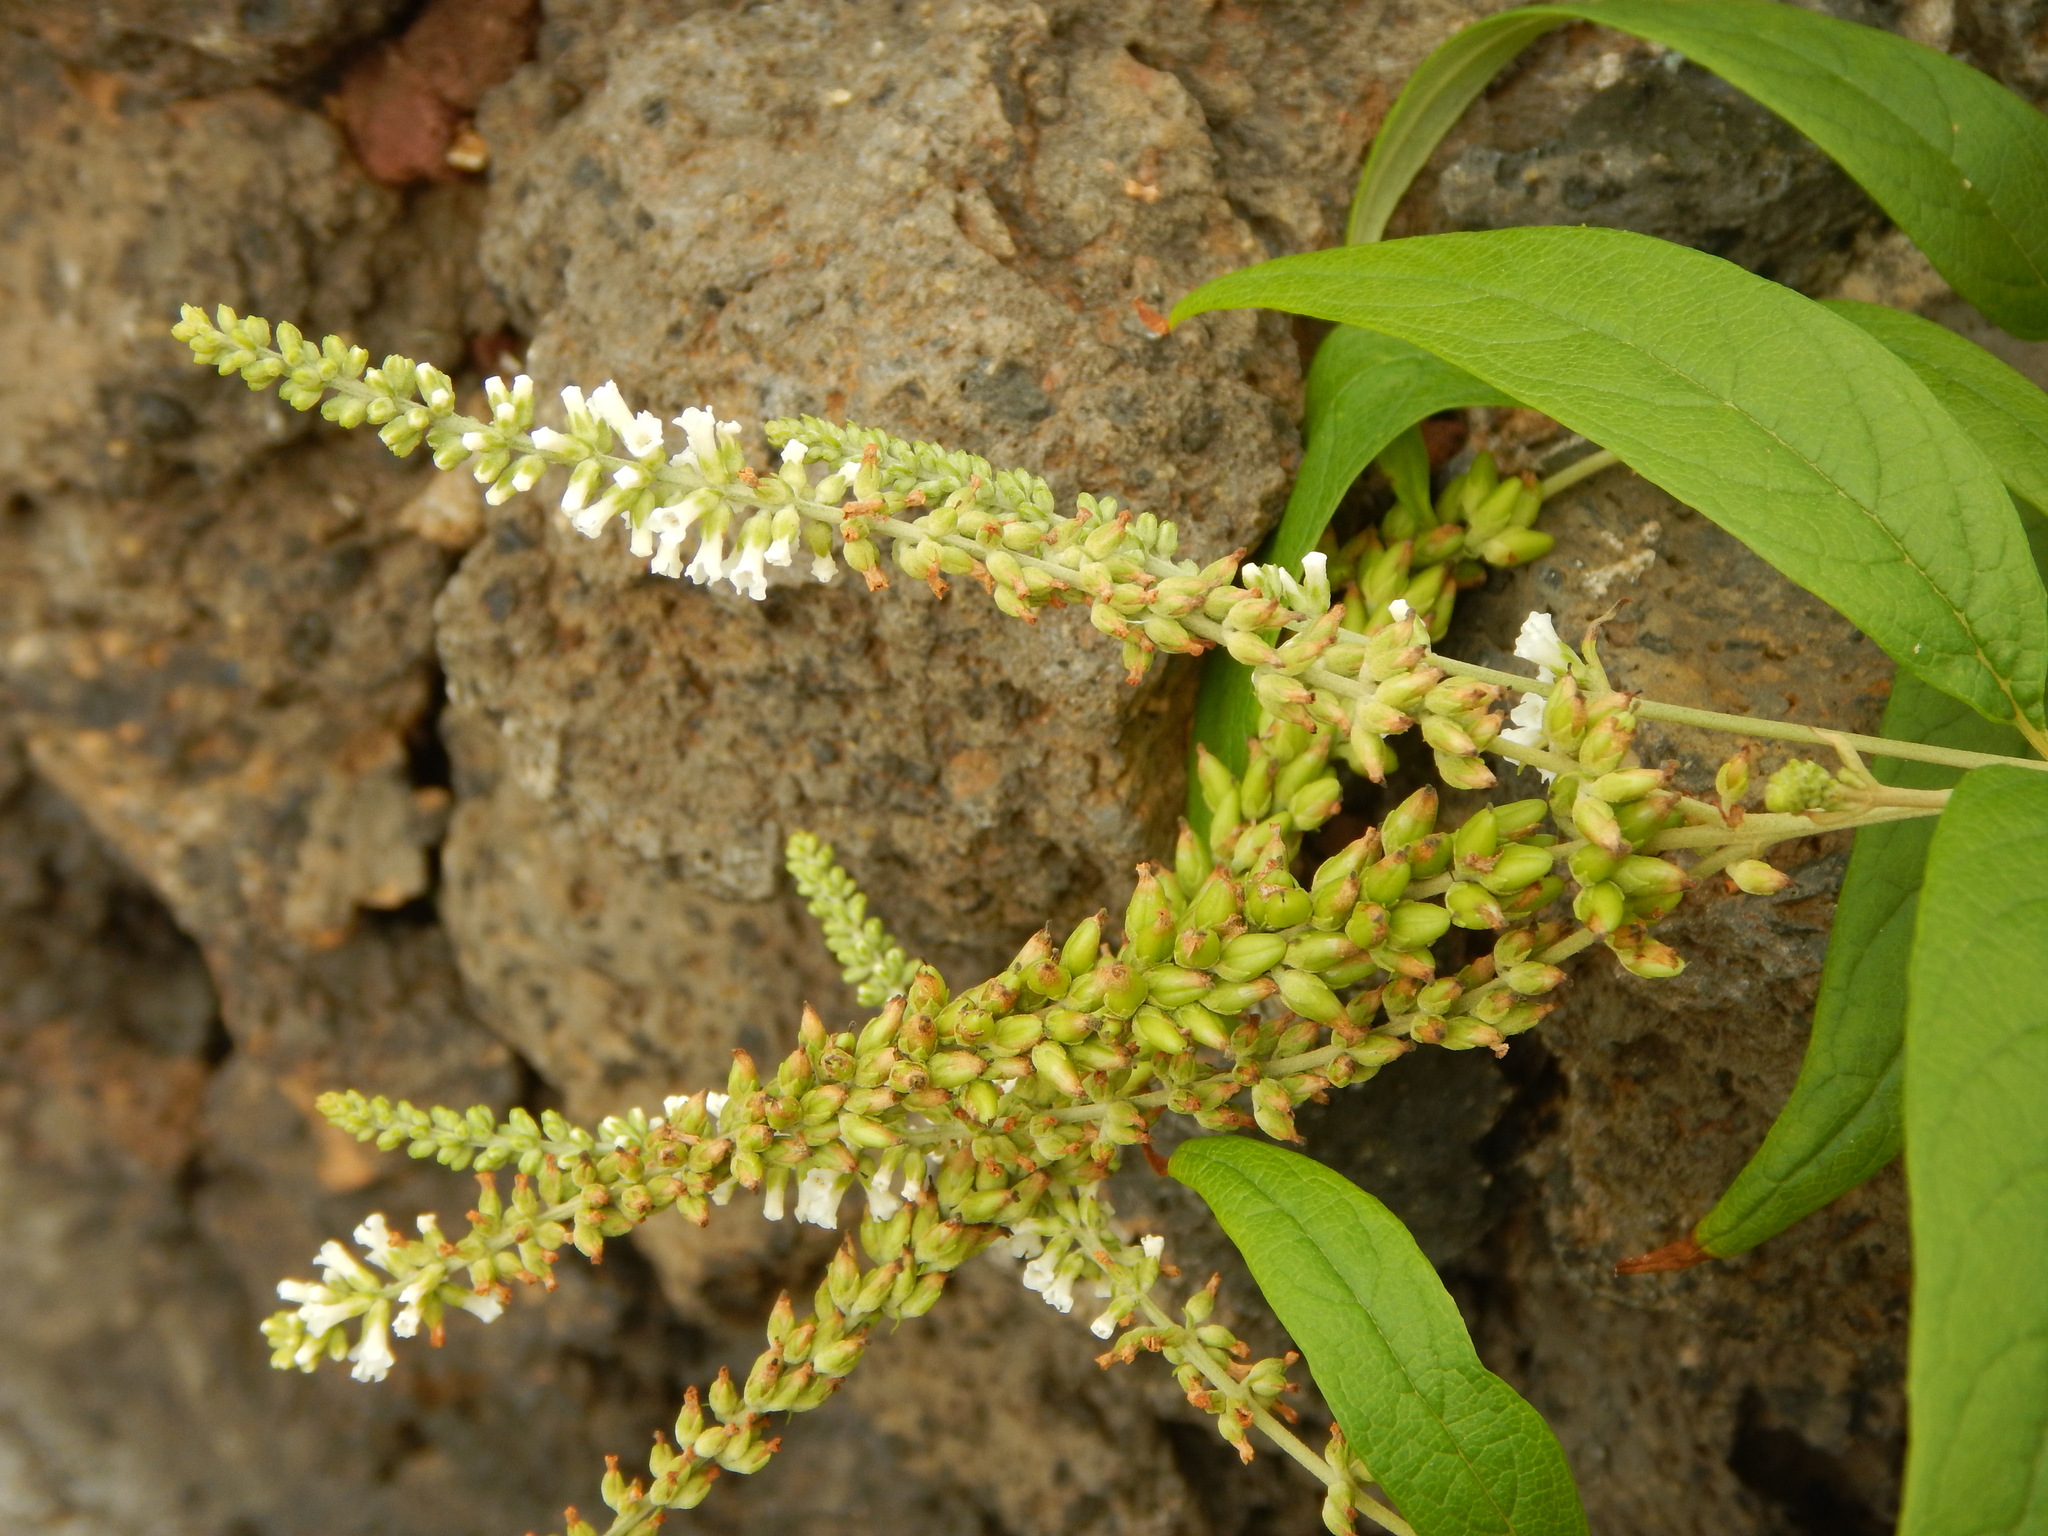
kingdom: Plantae
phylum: Tracheophyta
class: Magnoliopsida
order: Lamiales
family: Scrophulariaceae
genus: Buddleja
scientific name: Buddleja asiatica
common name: Dog tail
